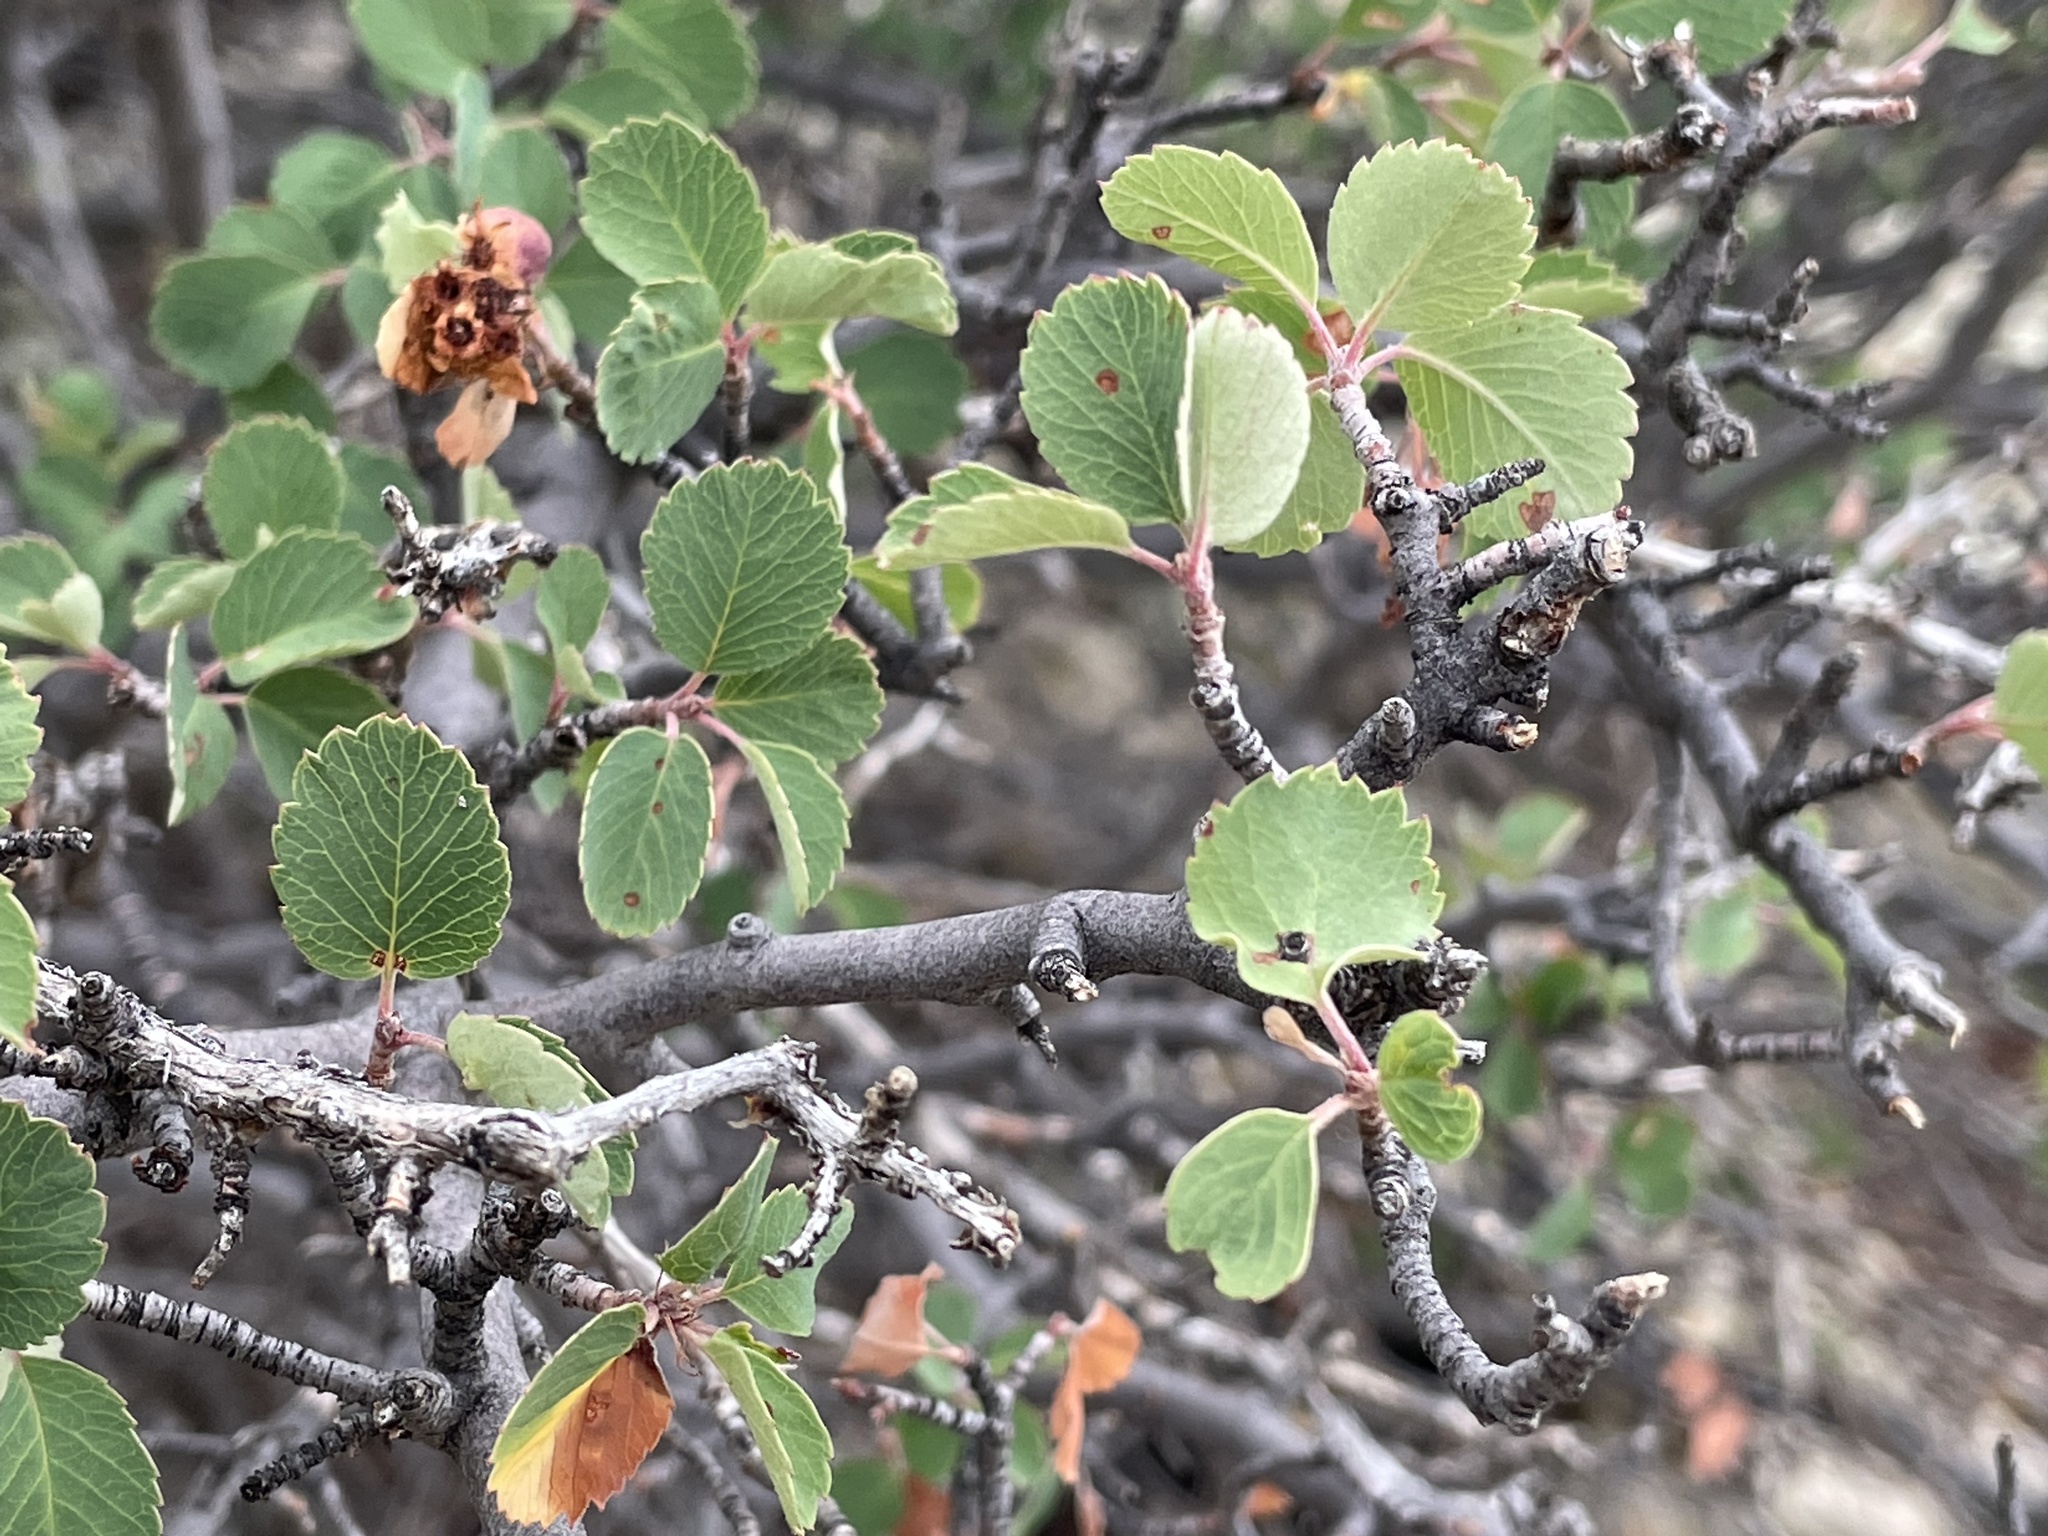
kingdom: Plantae
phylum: Tracheophyta
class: Magnoliopsida
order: Rosales
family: Rosaceae
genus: Amelanchier
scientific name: Amelanchier utahensis
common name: Utah serviceberry
